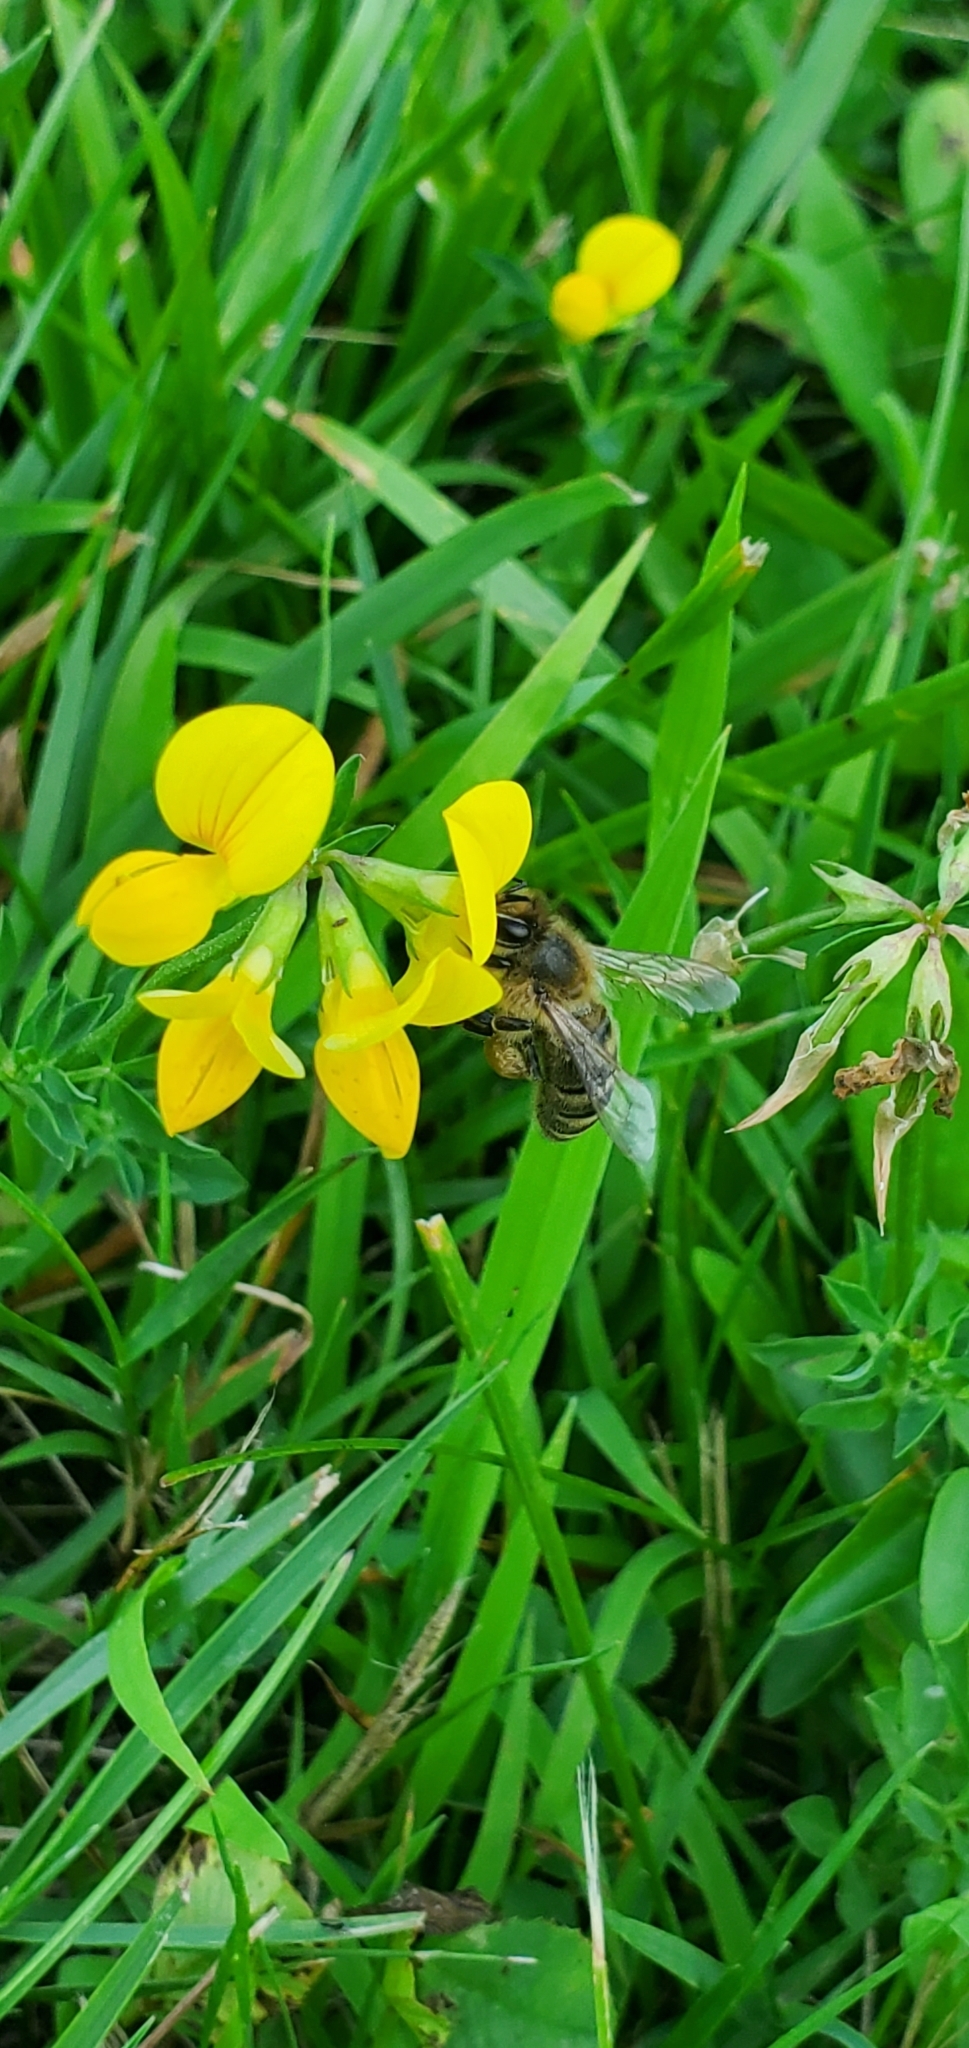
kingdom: Plantae
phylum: Tracheophyta
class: Magnoliopsida
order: Fabales
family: Fabaceae
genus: Lotus
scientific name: Lotus corniculatus
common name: Common bird's-foot-trefoil
